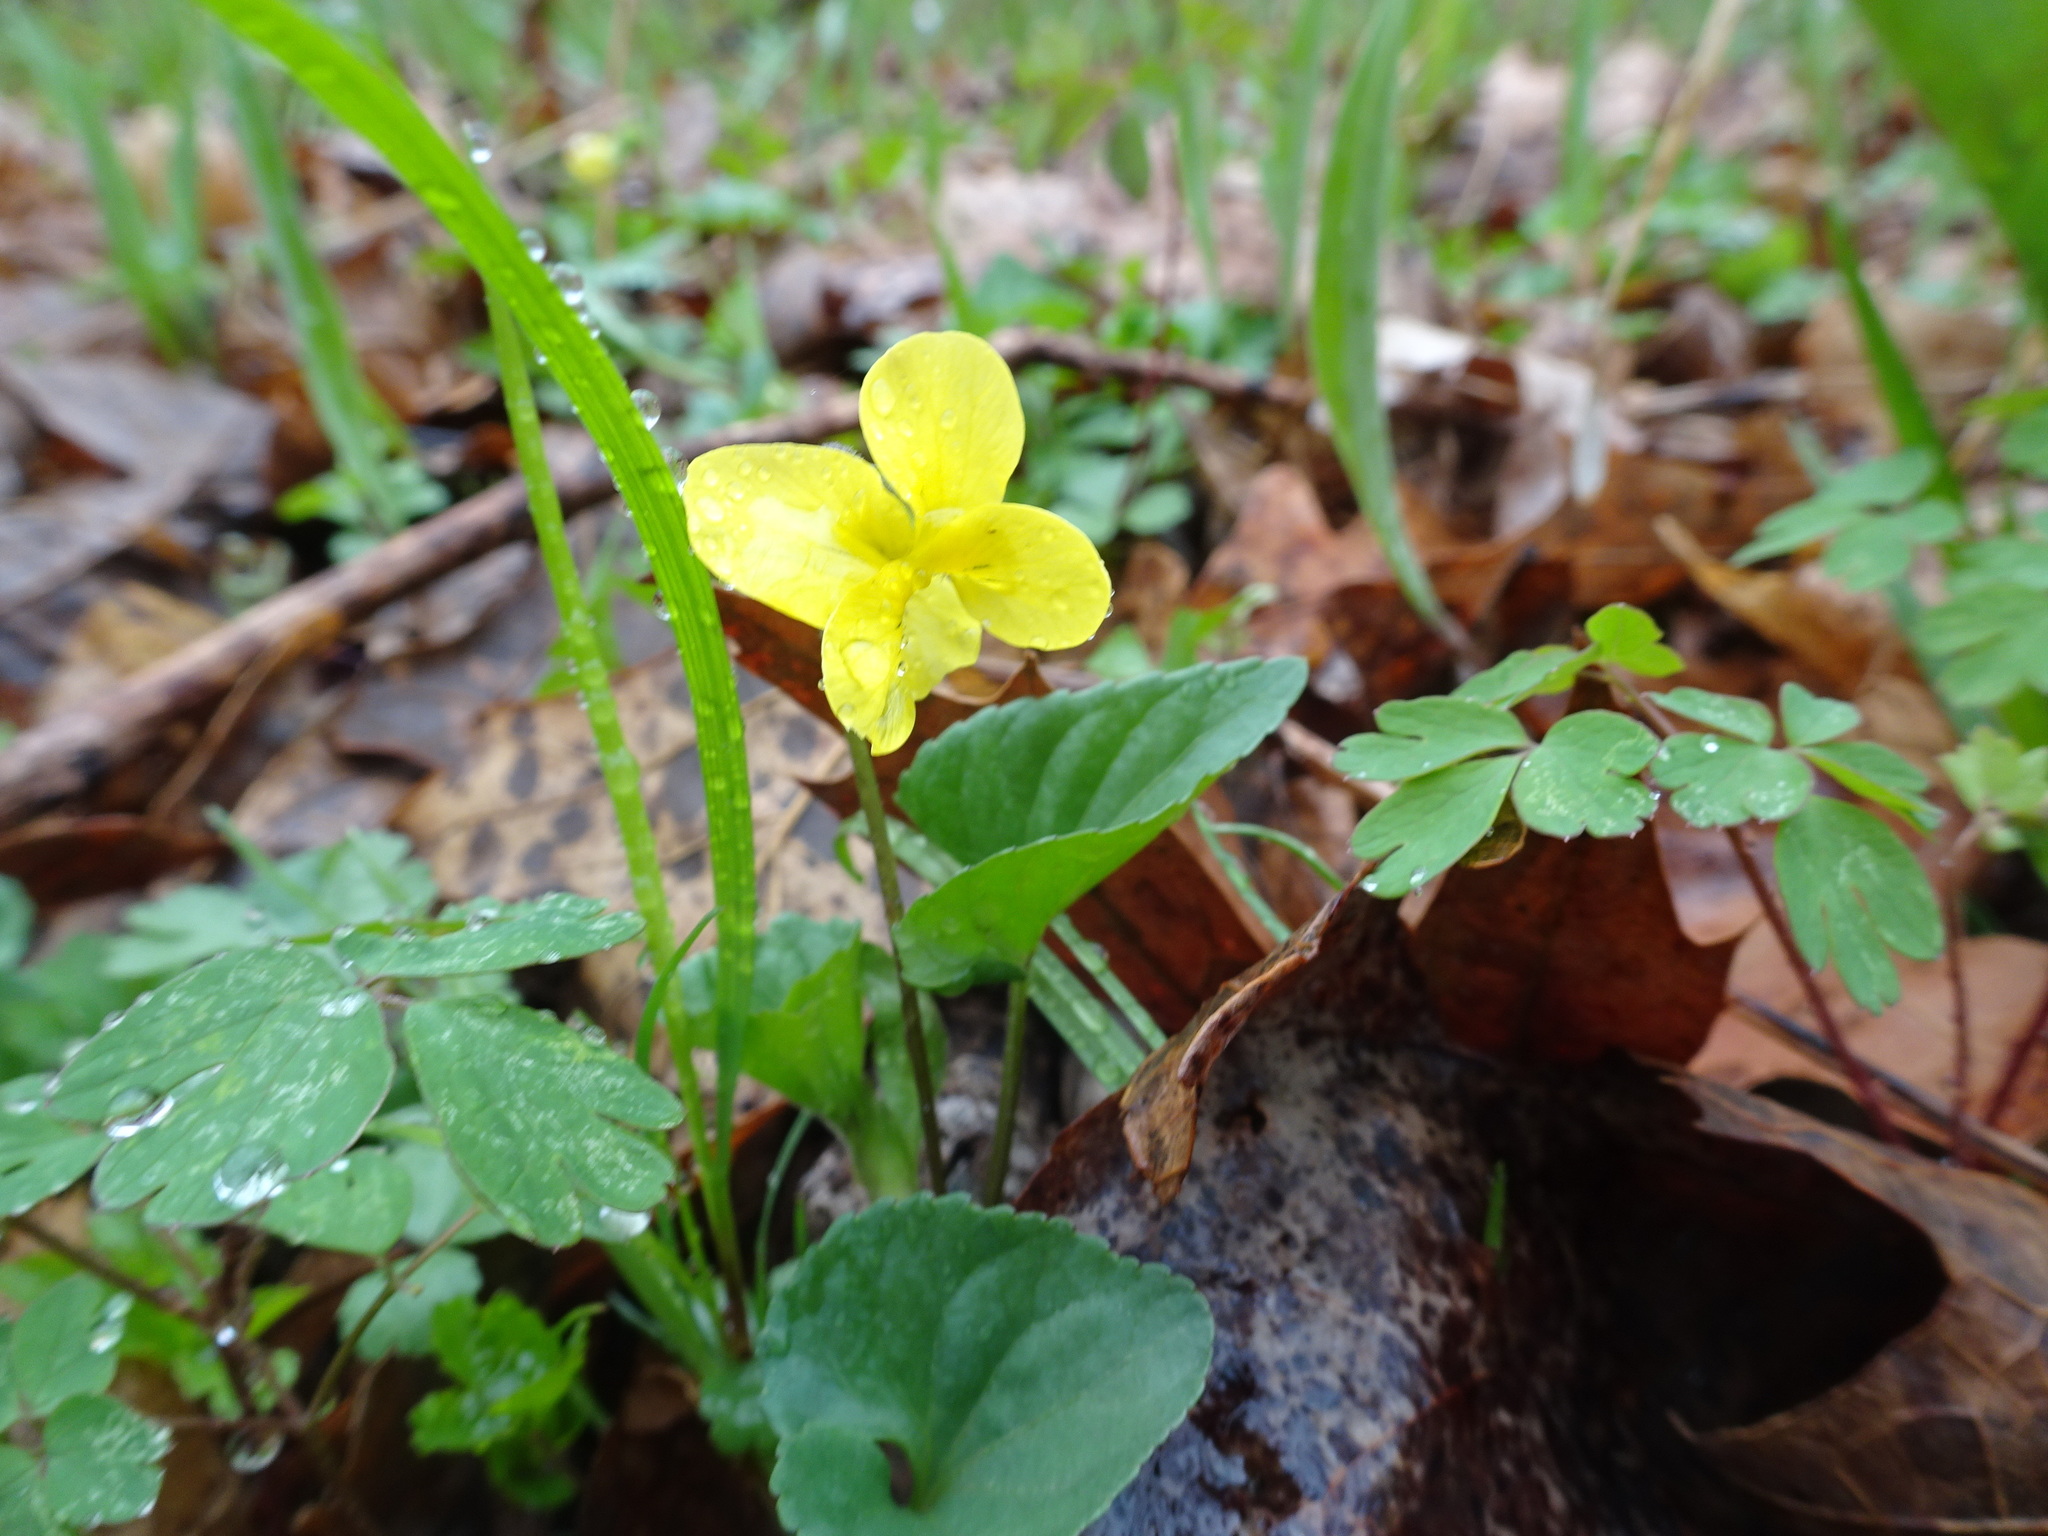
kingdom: Plantae
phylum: Tracheophyta
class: Magnoliopsida
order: Malpighiales
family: Violaceae
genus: Viola
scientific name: Viola eriocarpa
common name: Smooth yellow violet
